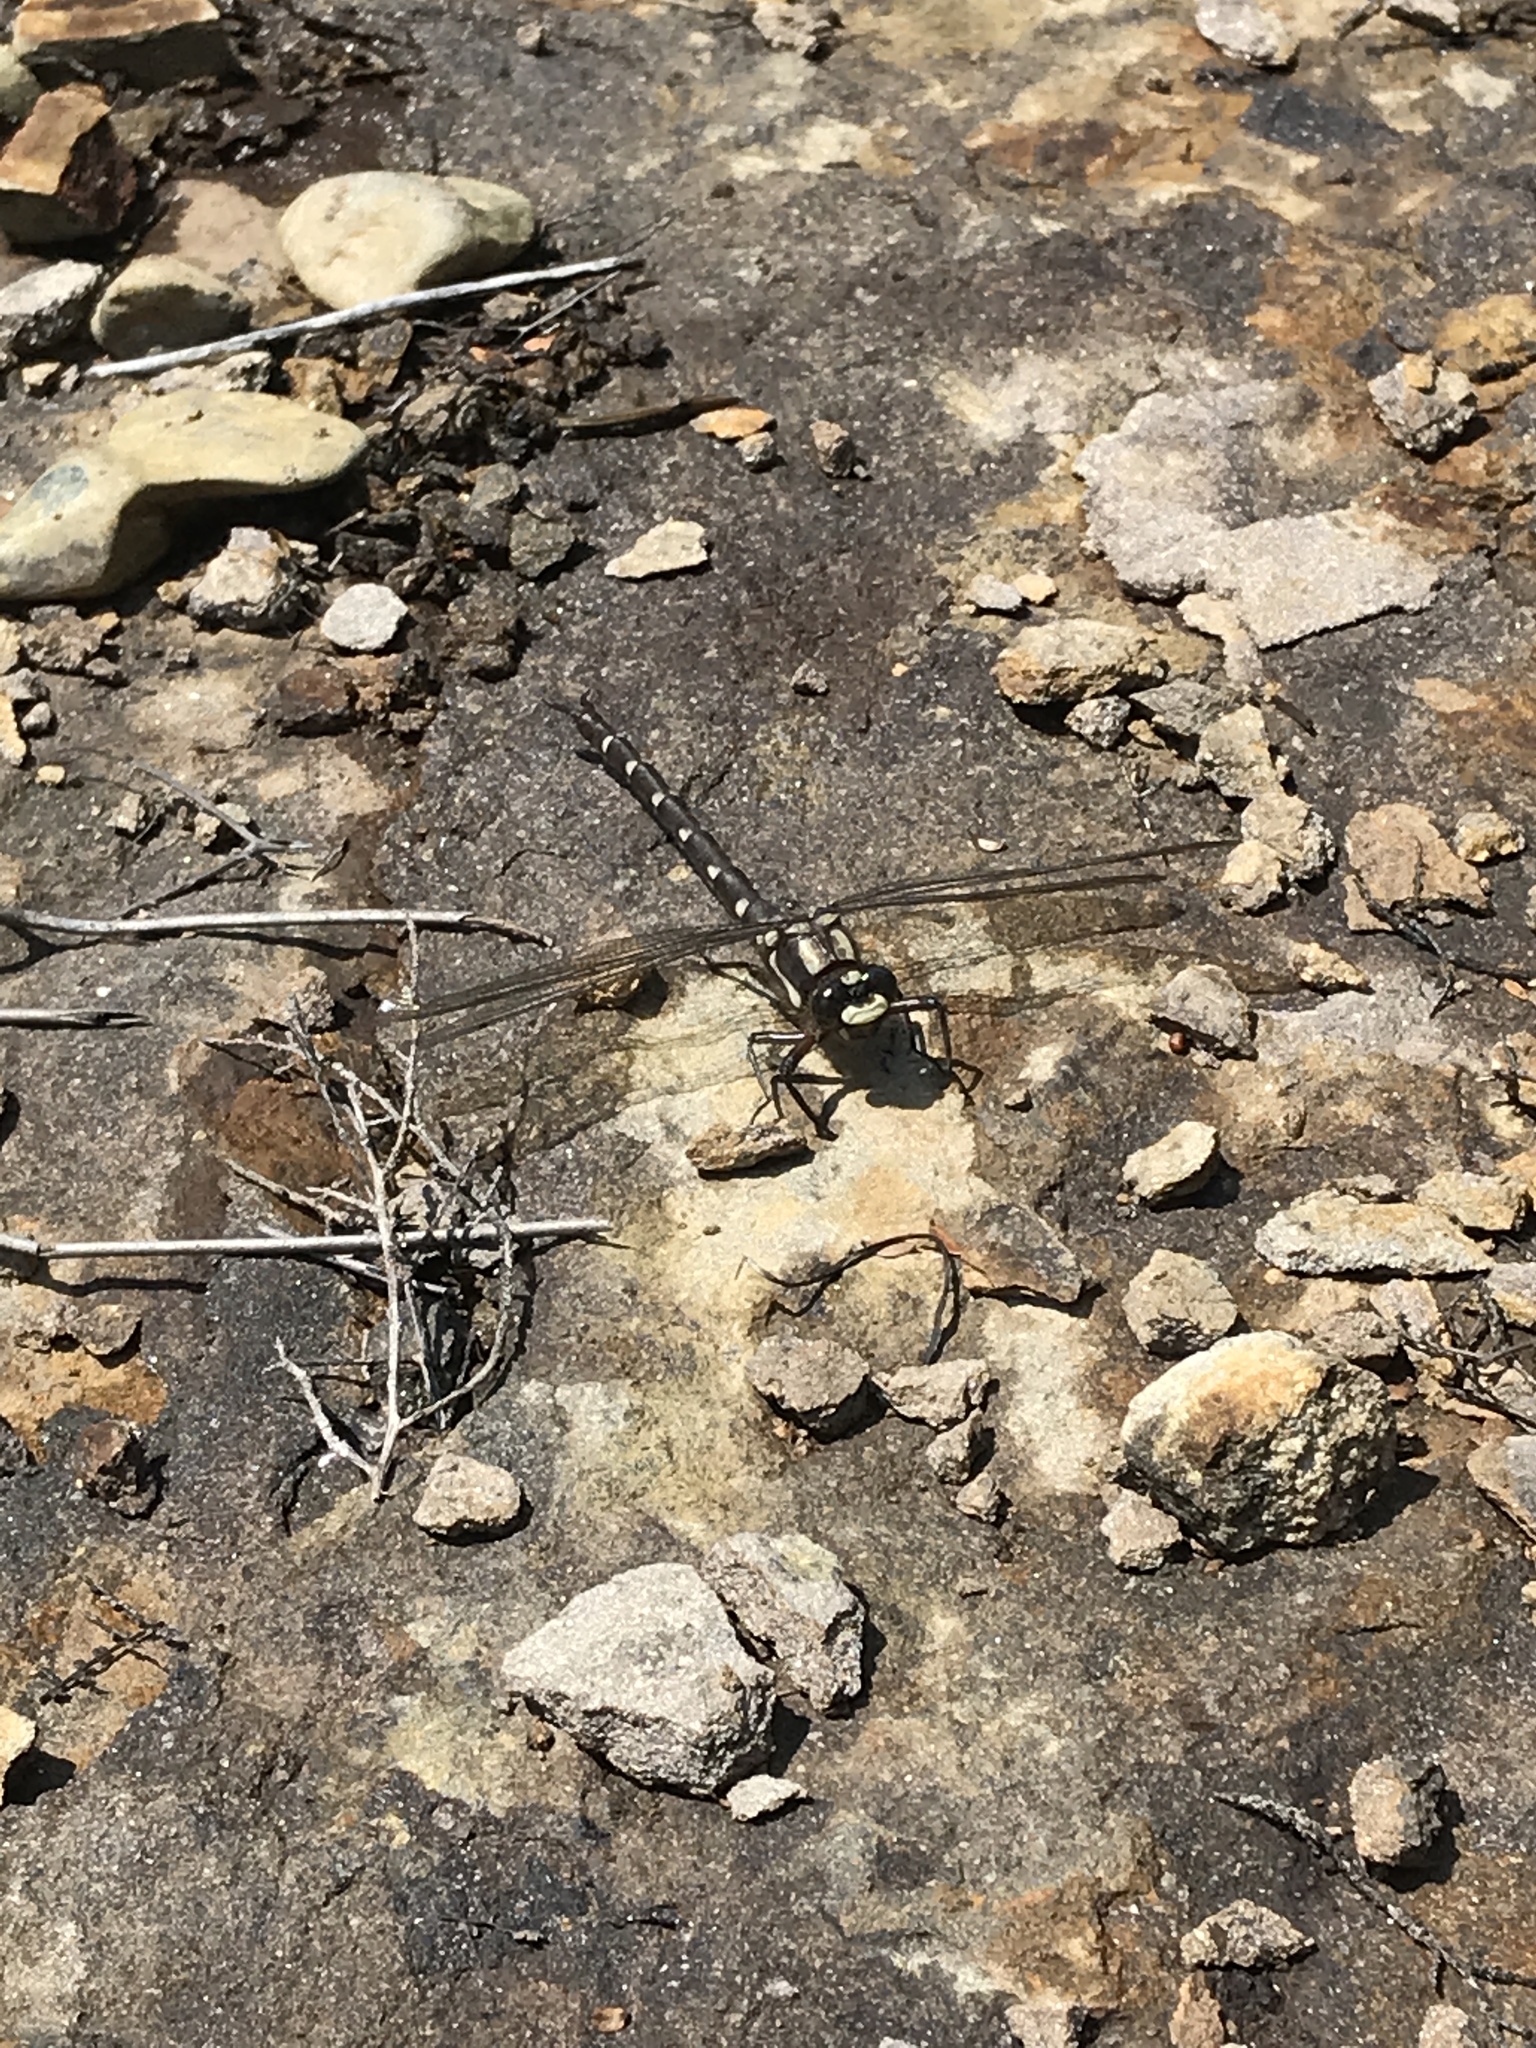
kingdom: Animalia
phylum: Arthropoda
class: Insecta
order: Odonata
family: Petaluridae
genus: Uropetala
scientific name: Uropetala carovei
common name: Bush giant dragonfly
